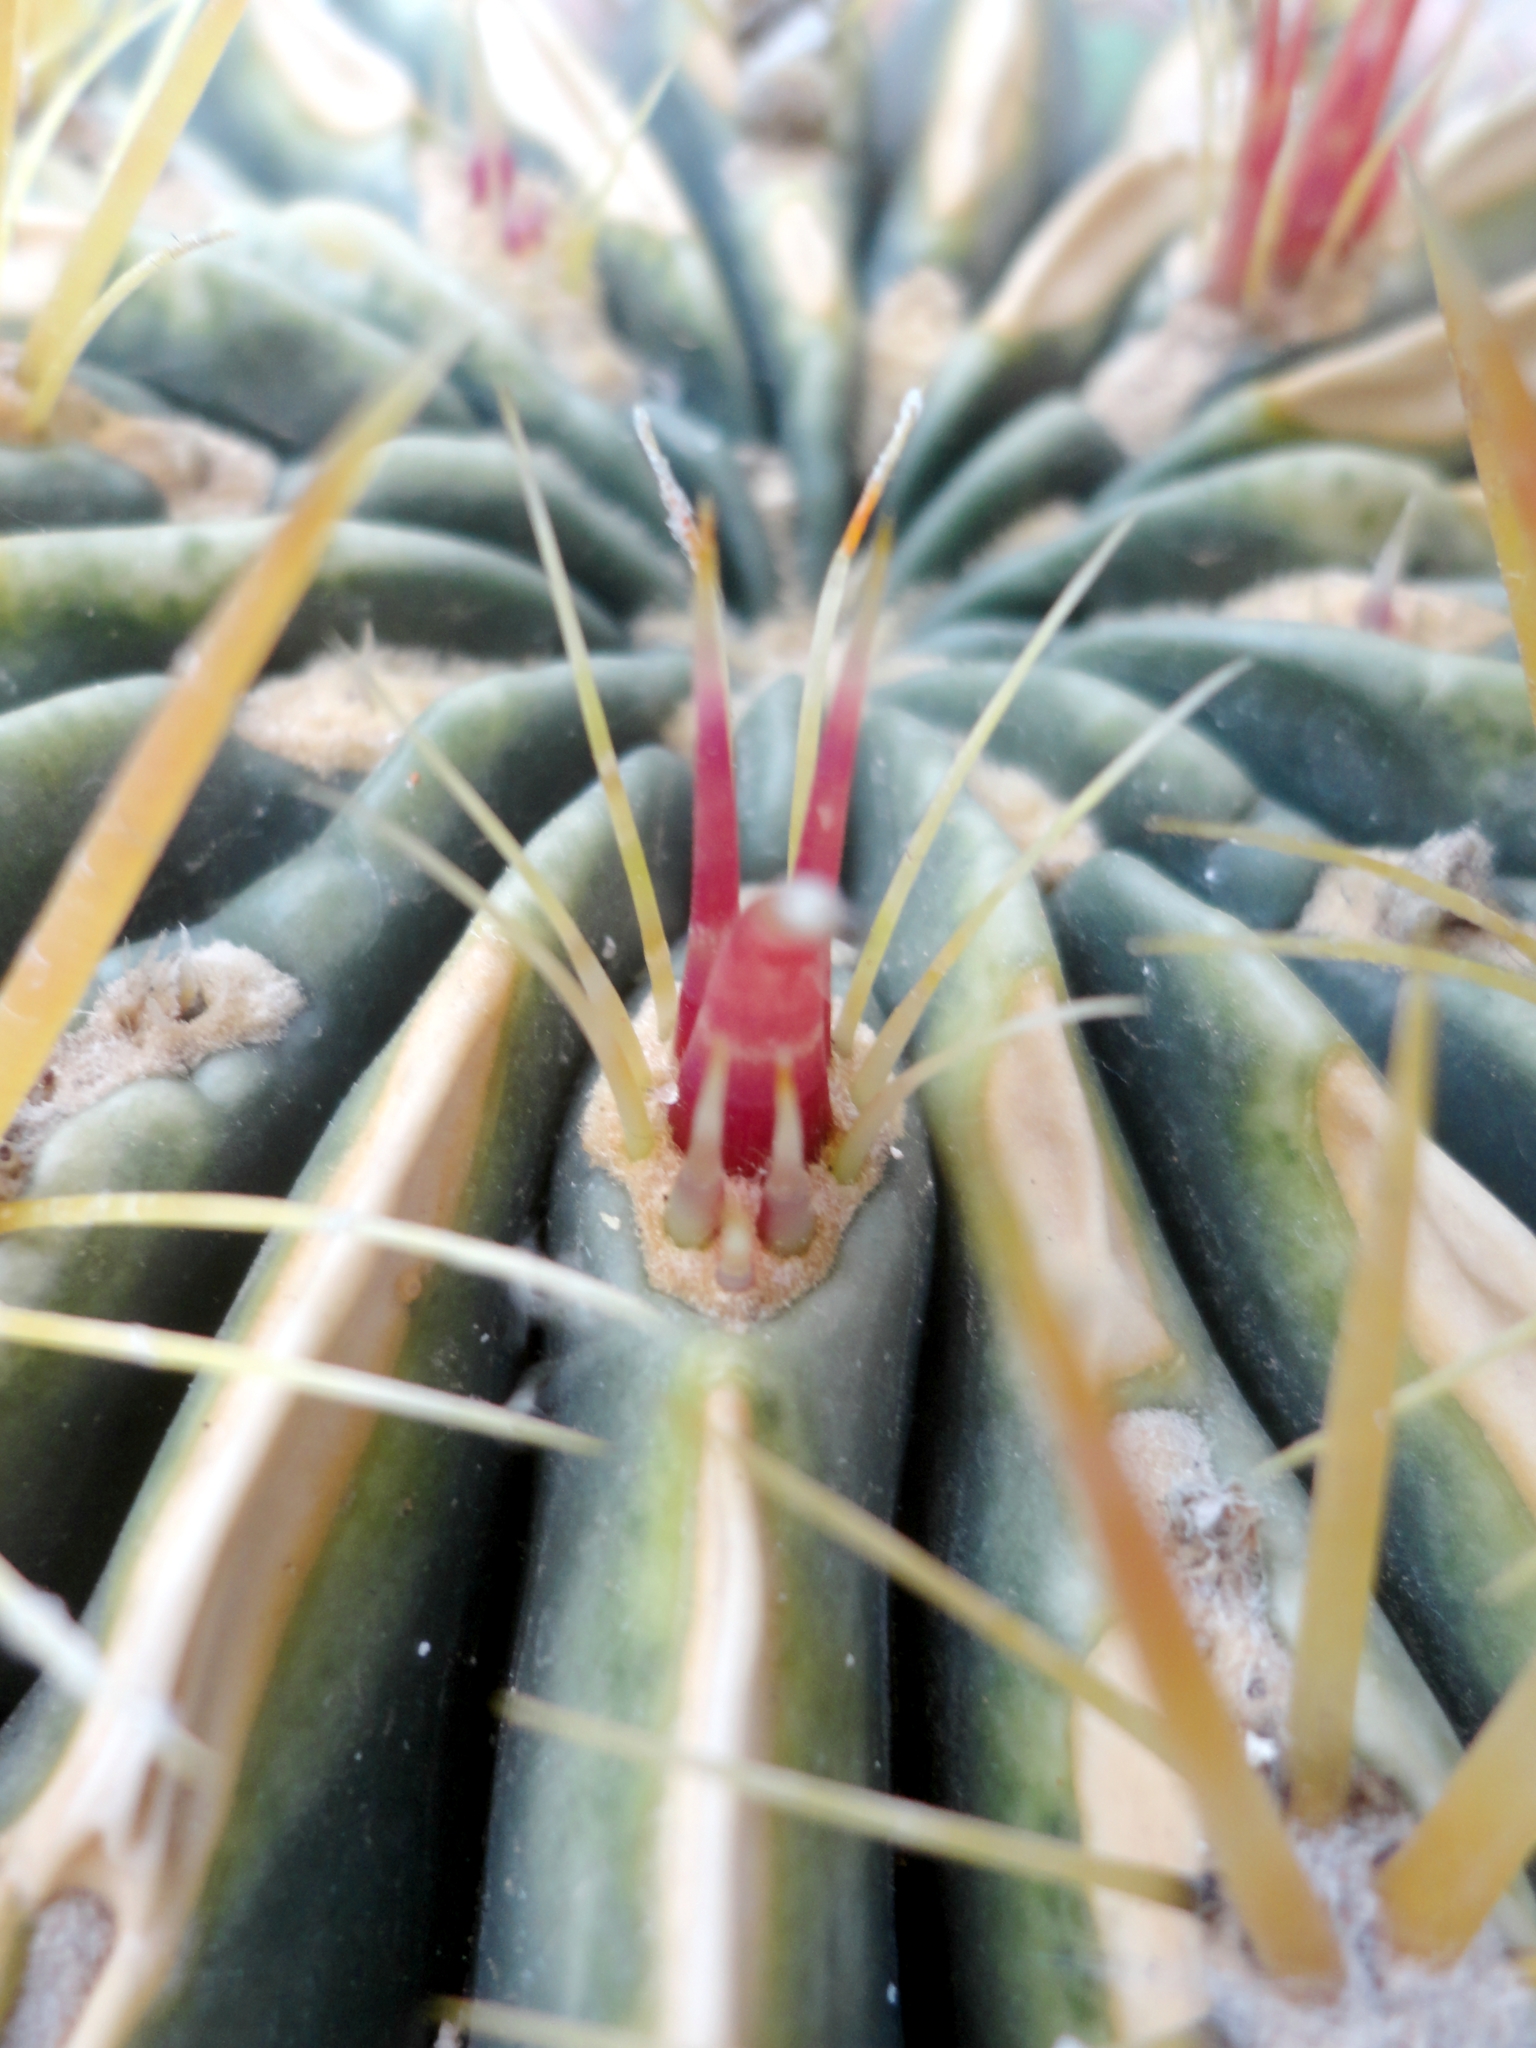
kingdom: Plantae
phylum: Tracheophyta
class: Magnoliopsida
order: Caryophyllales
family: Cactaceae
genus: Ferocactus
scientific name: Ferocactus latispinus
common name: Devil's-tongue cactus
